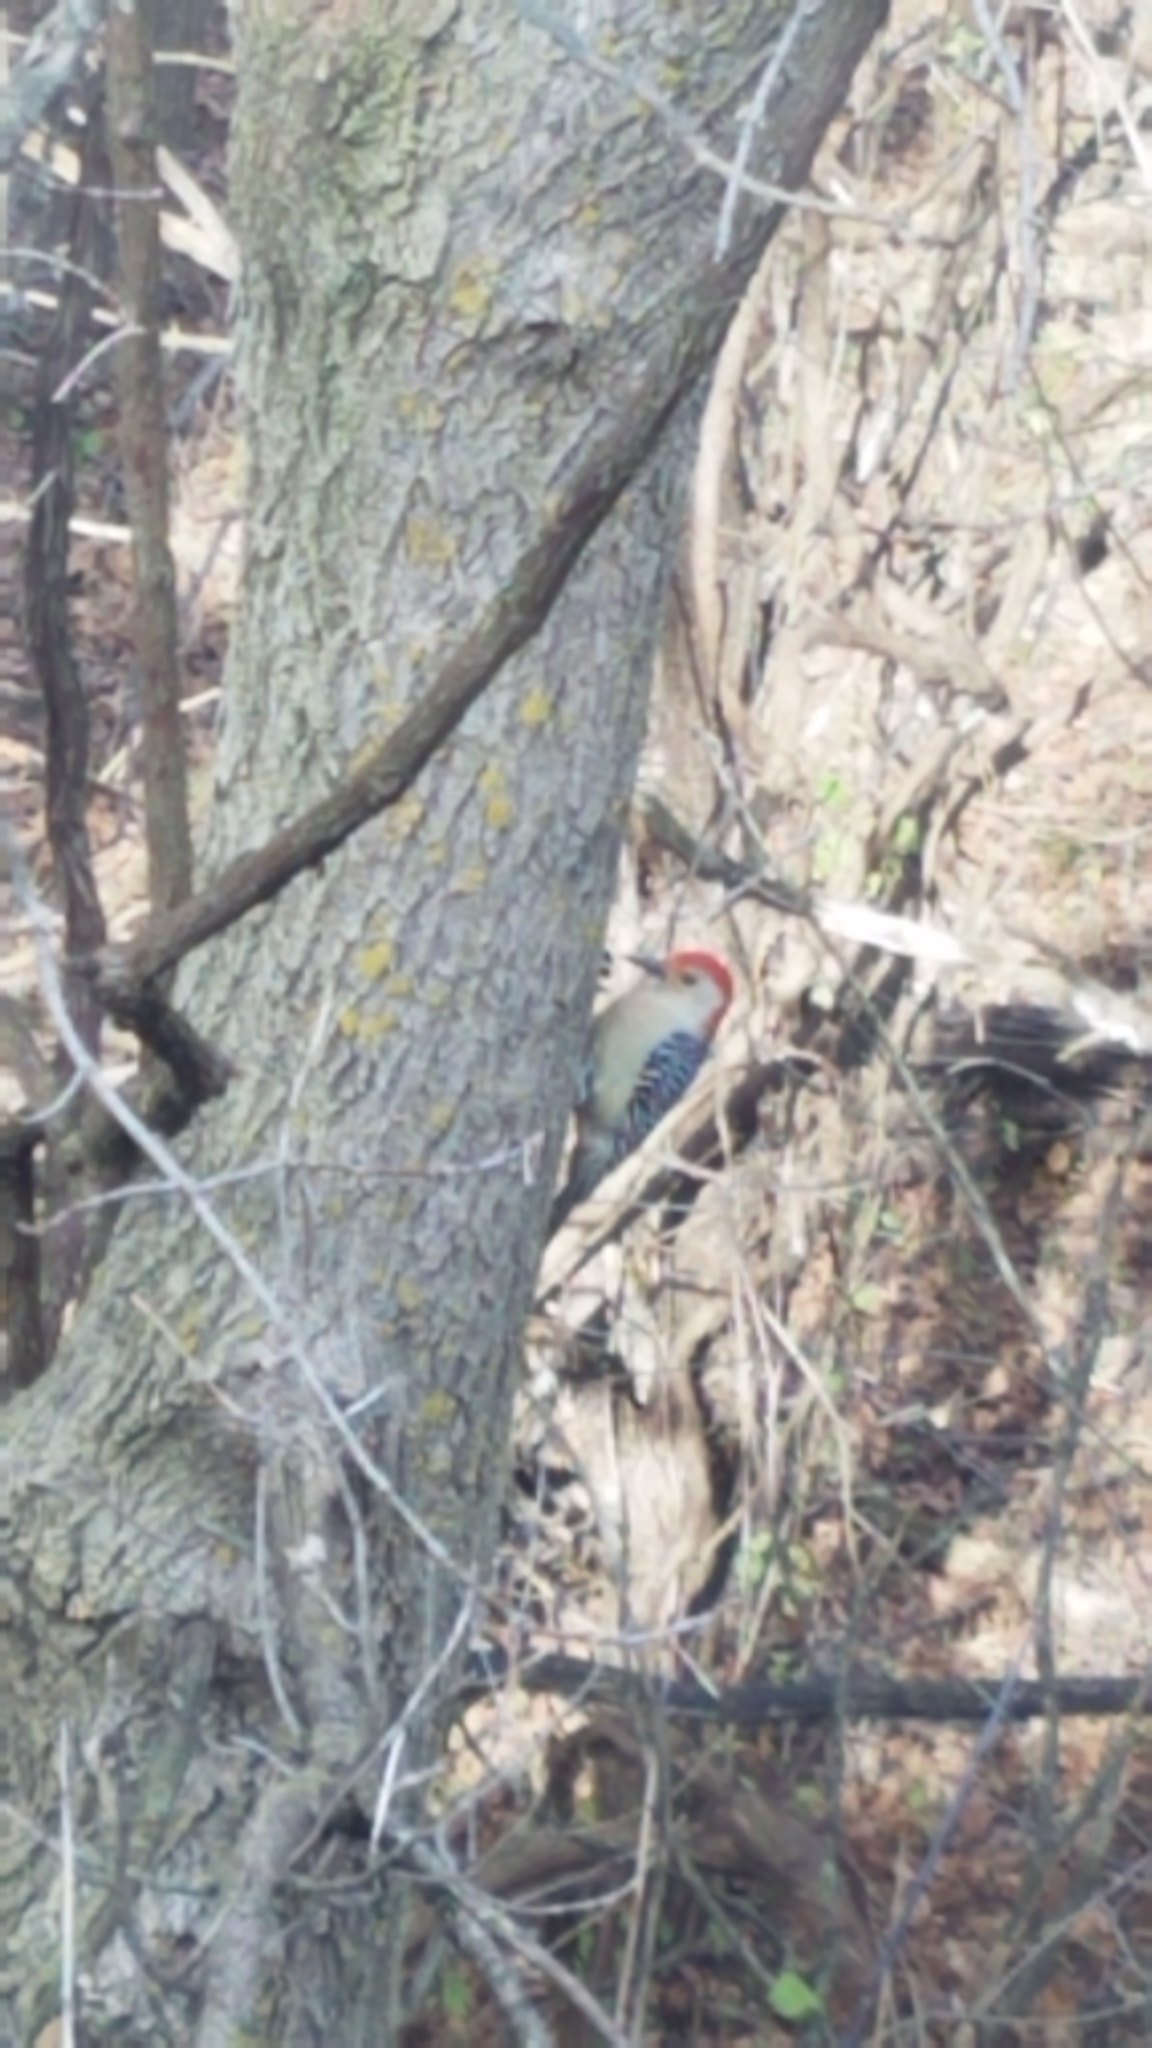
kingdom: Animalia
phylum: Chordata
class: Aves
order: Piciformes
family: Picidae
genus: Melanerpes
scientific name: Melanerpes carolinus
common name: Red-bellied woodpecker
